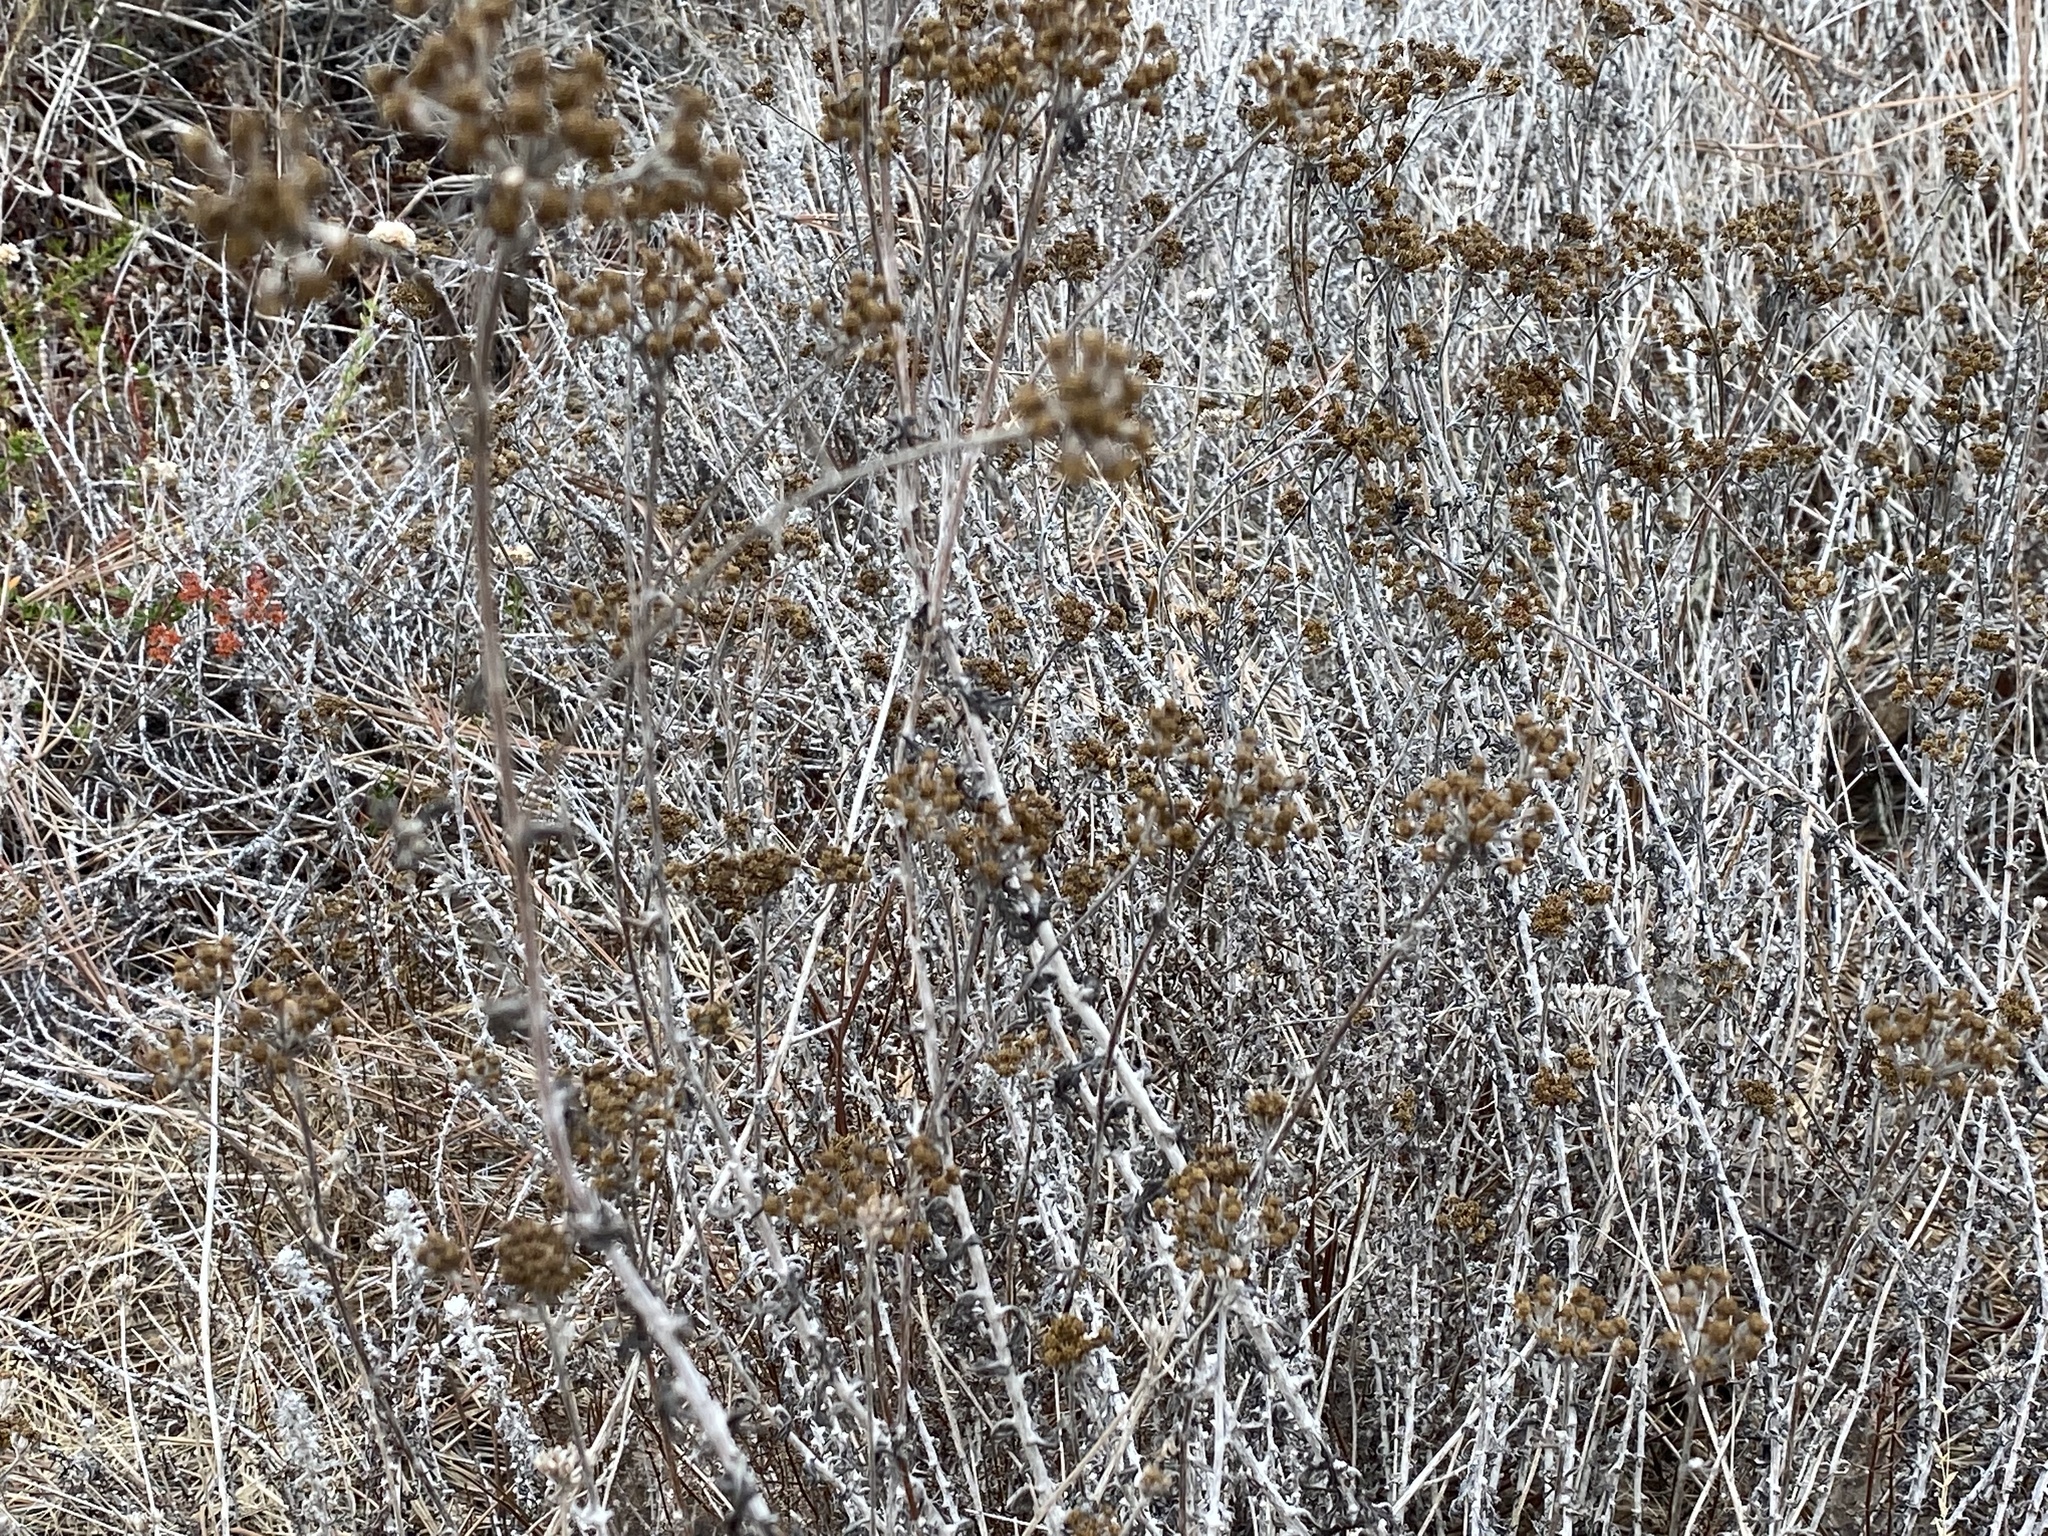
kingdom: Plantae
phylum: Tracheophyta
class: Magnoliopsida
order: Asterales
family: Asteraceae
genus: Eriophyllum
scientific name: Eriophyllum confertiflorum
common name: Golden-yarrow
